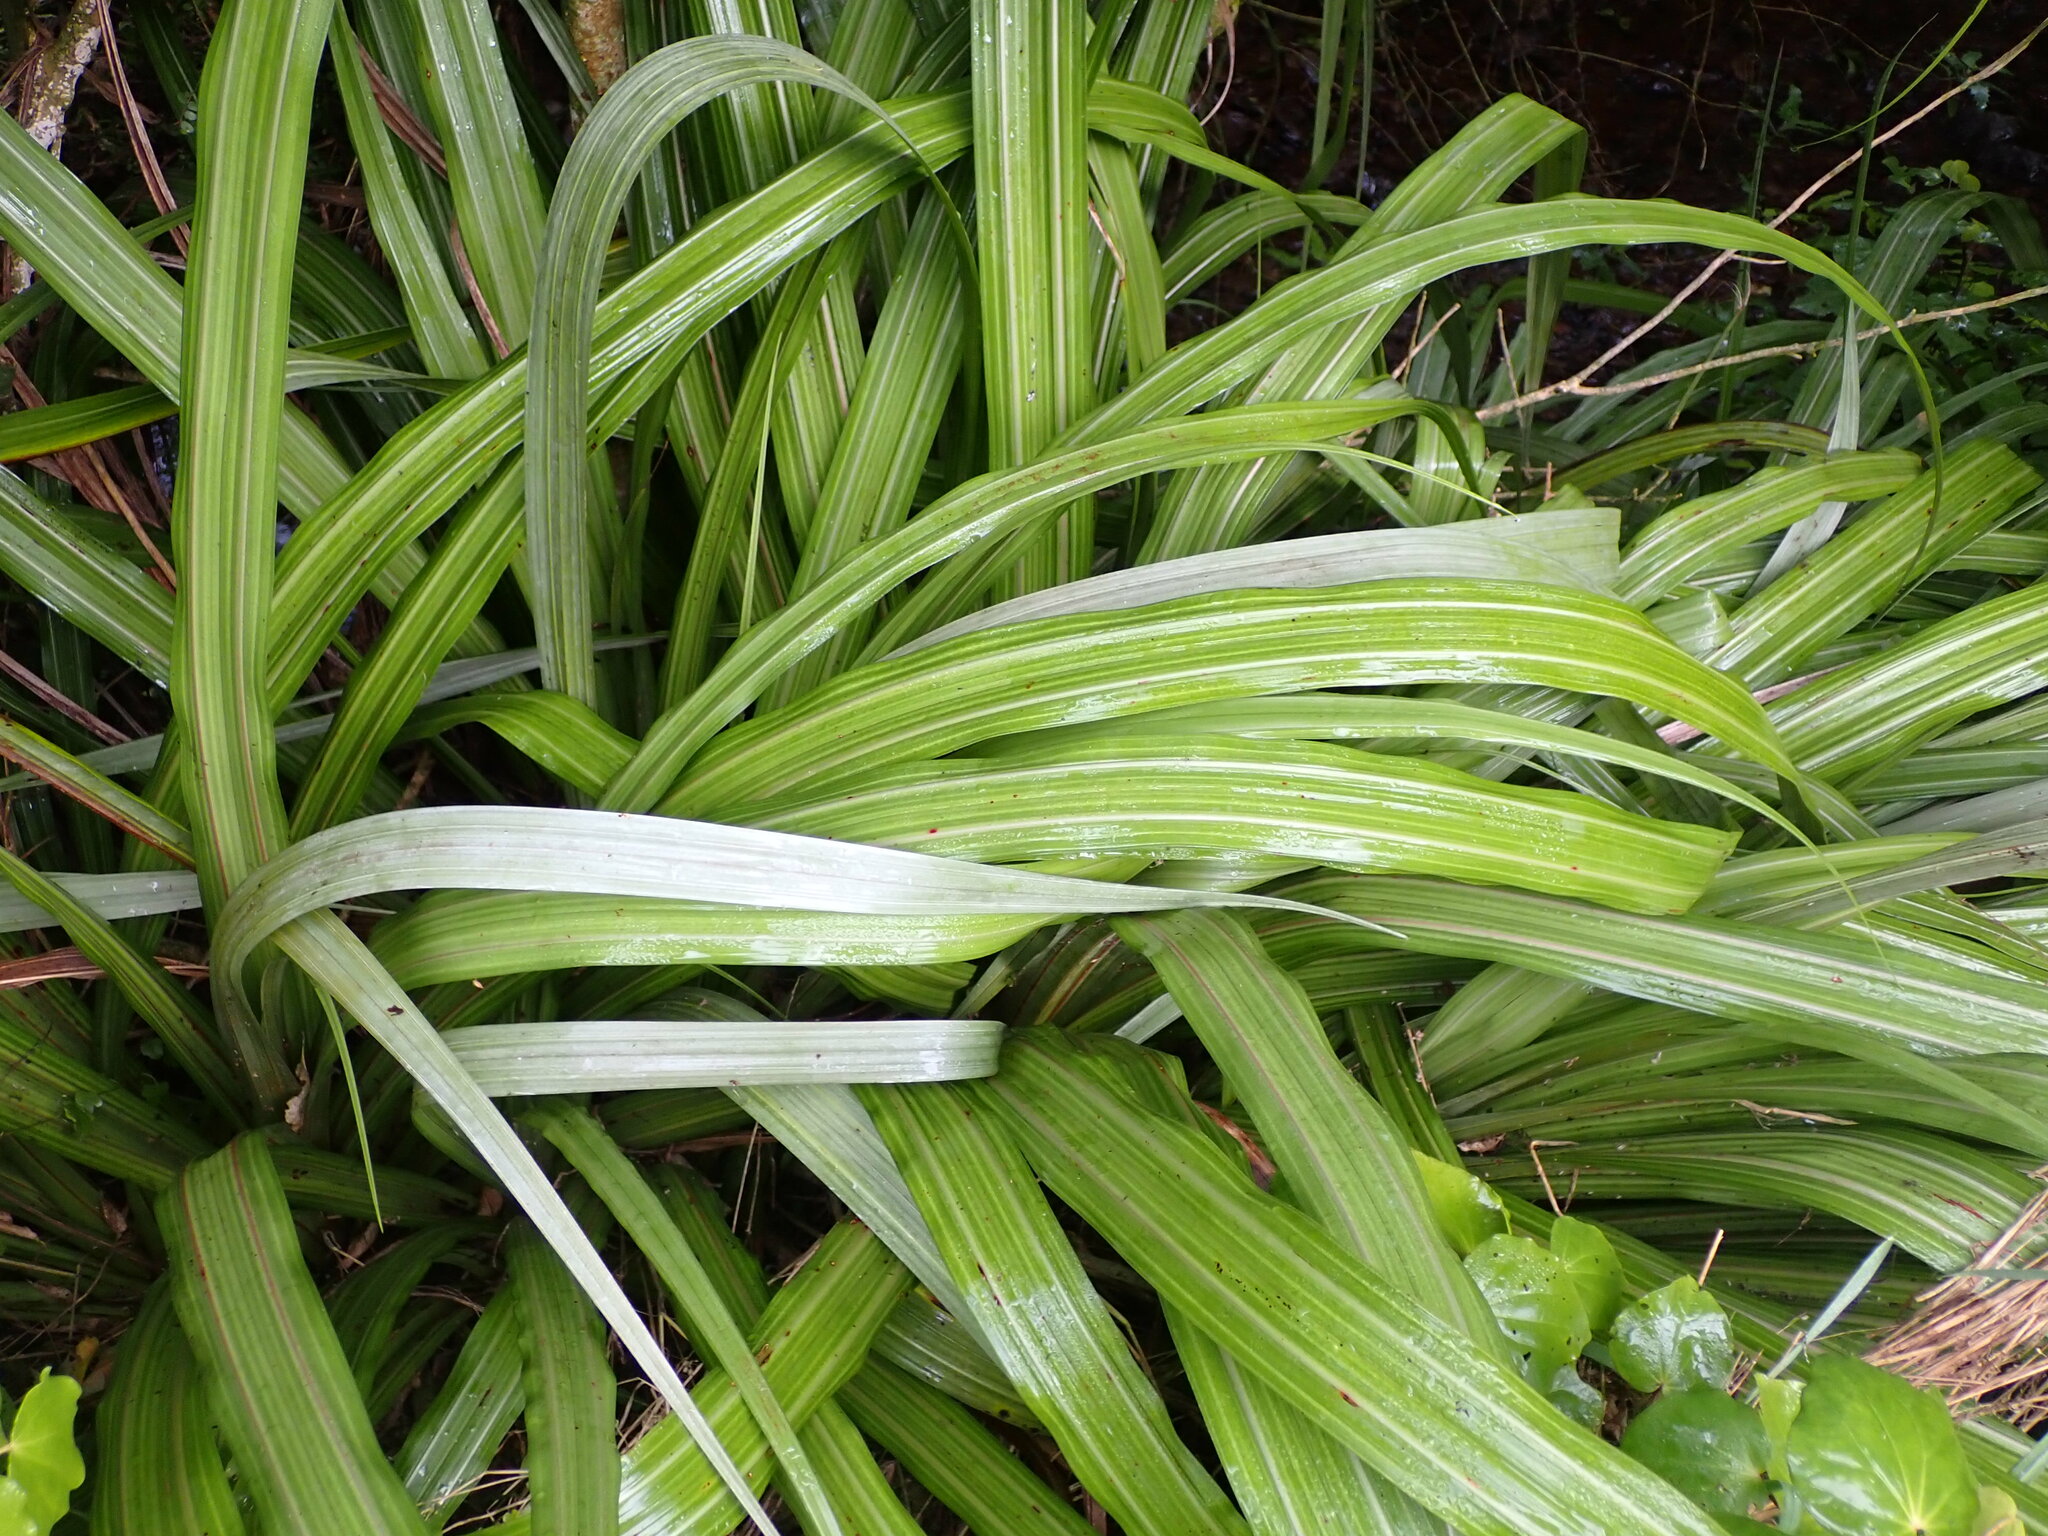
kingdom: Plantae
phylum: Tracheophyta
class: Liliopsida
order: Asparagales
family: Asteliaceae
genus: Astelia
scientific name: Astelia fragrans
